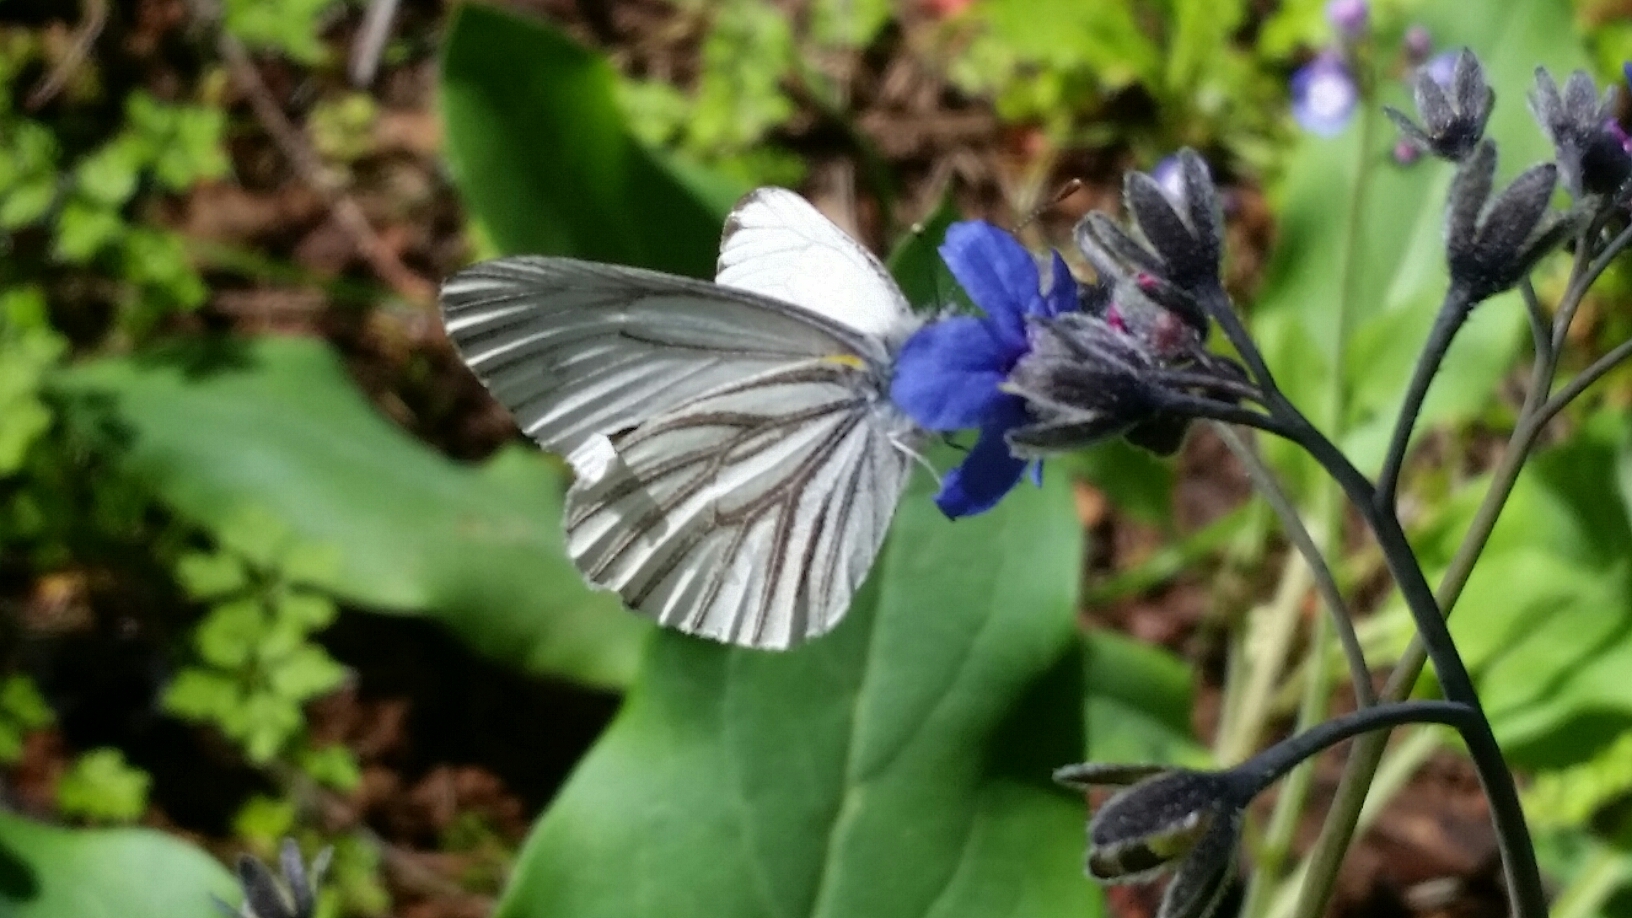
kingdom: Animalia
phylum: Arthropoda
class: Insecta
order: Lepidoptera
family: Pieridae
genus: Pieris
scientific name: Pieris marginalis
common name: Margined white
